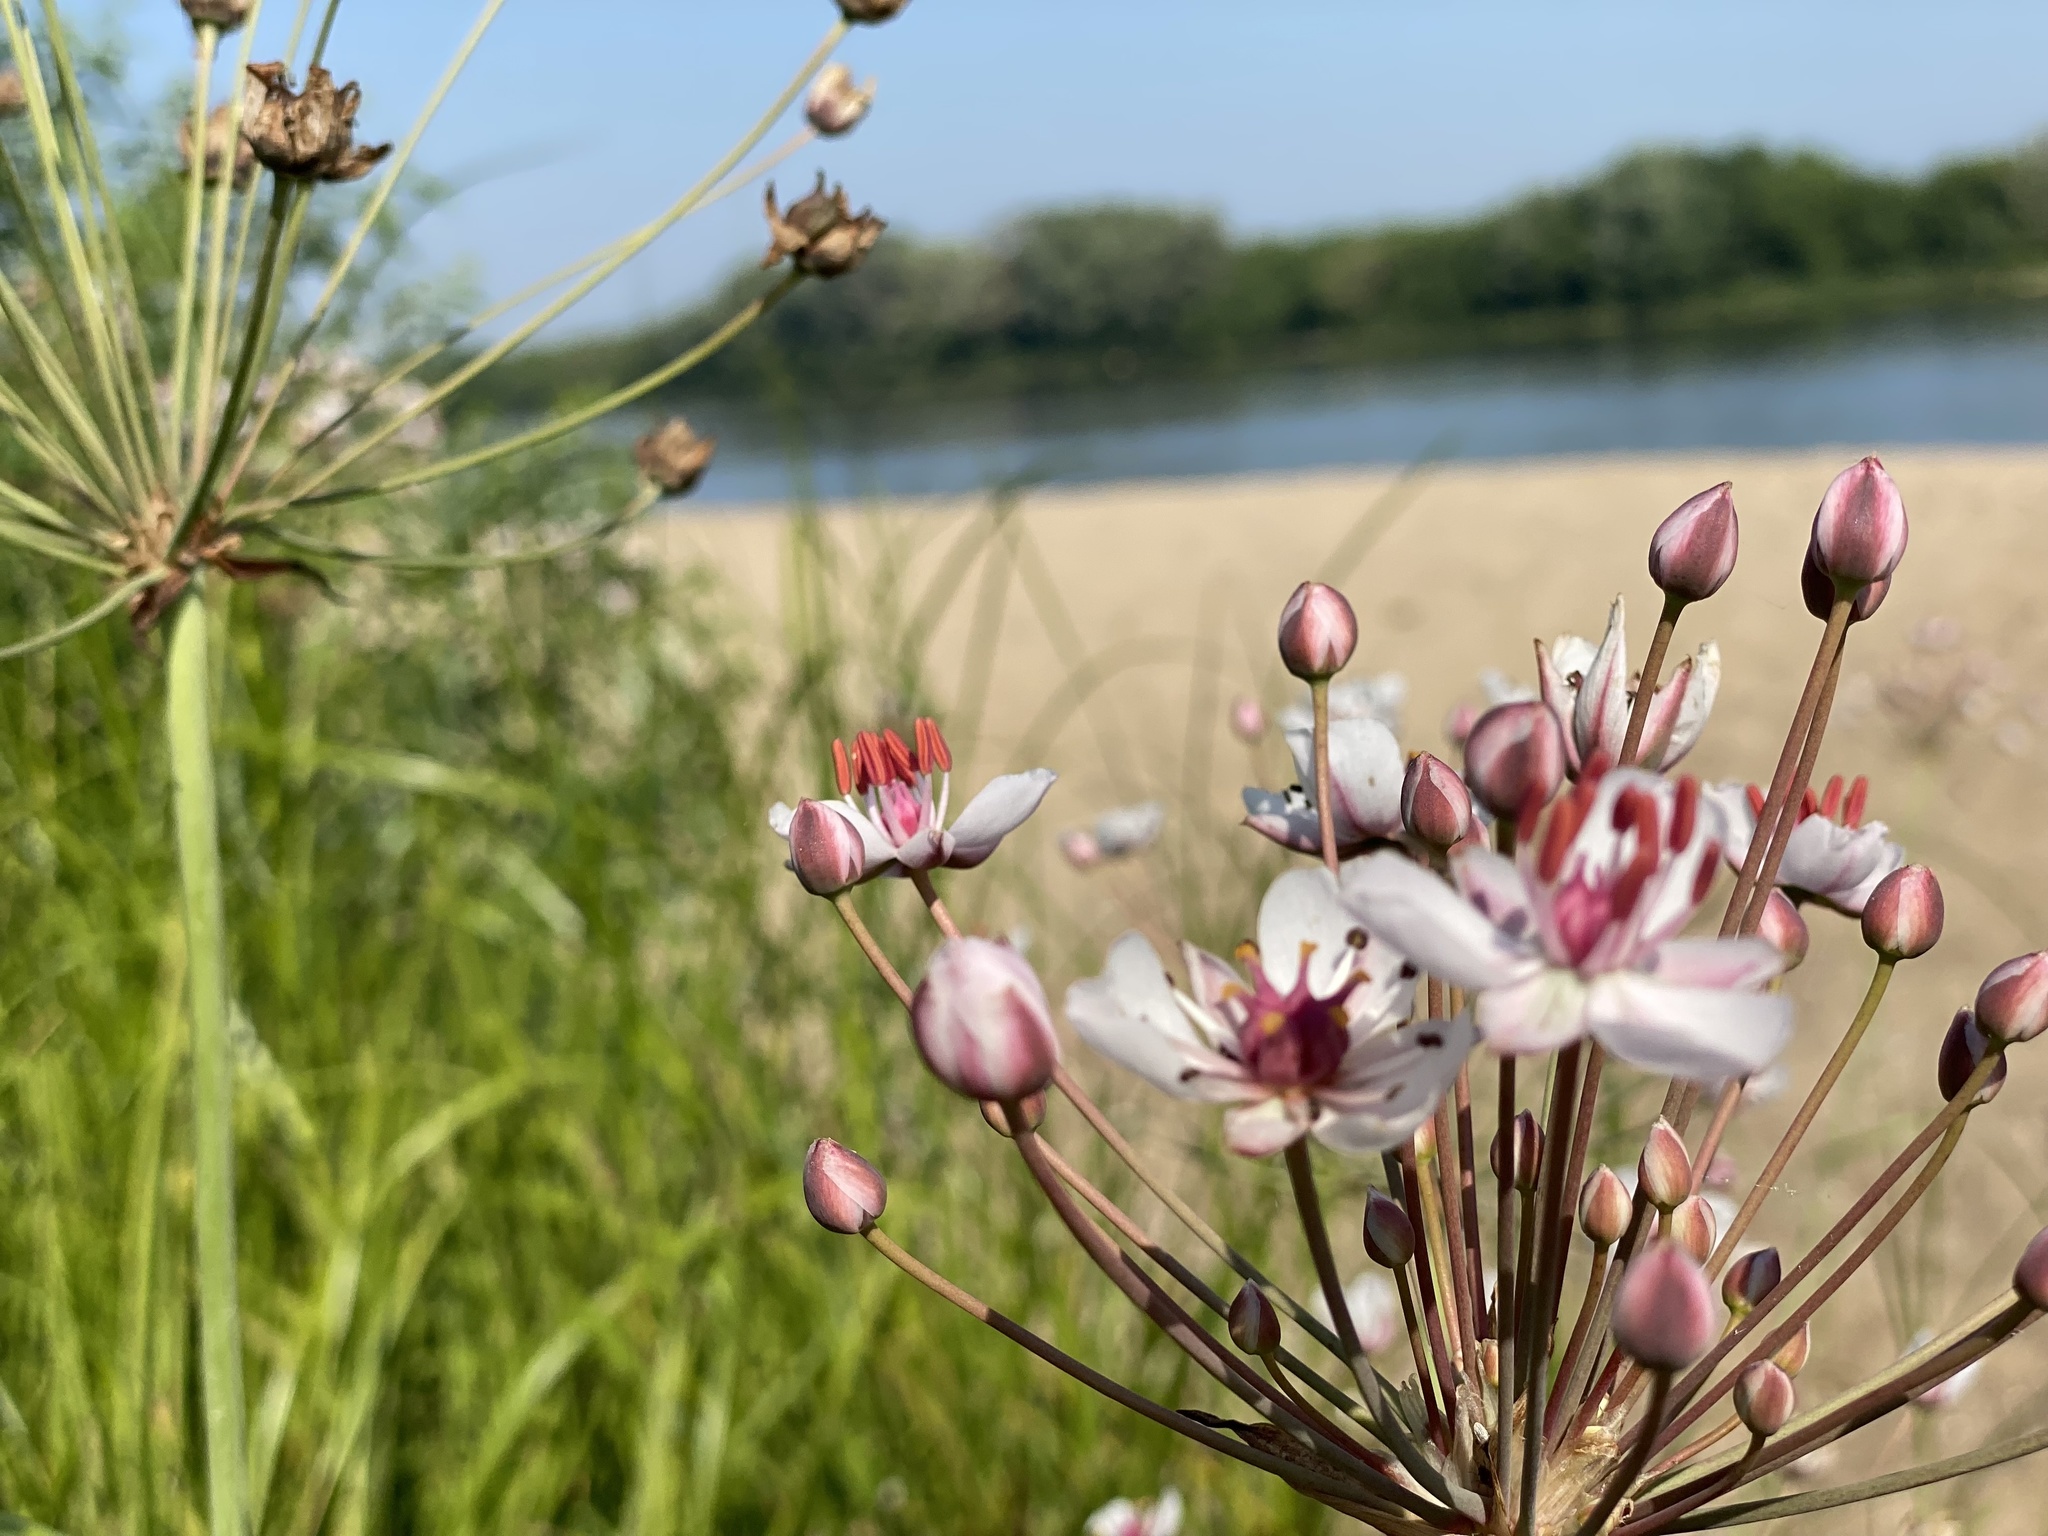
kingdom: Plantae
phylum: Tracheophyta
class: Liliopsida
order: Alismatales
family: Butomaceae
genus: Butomus
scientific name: Butomus umbellatus
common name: Flowering-rush
